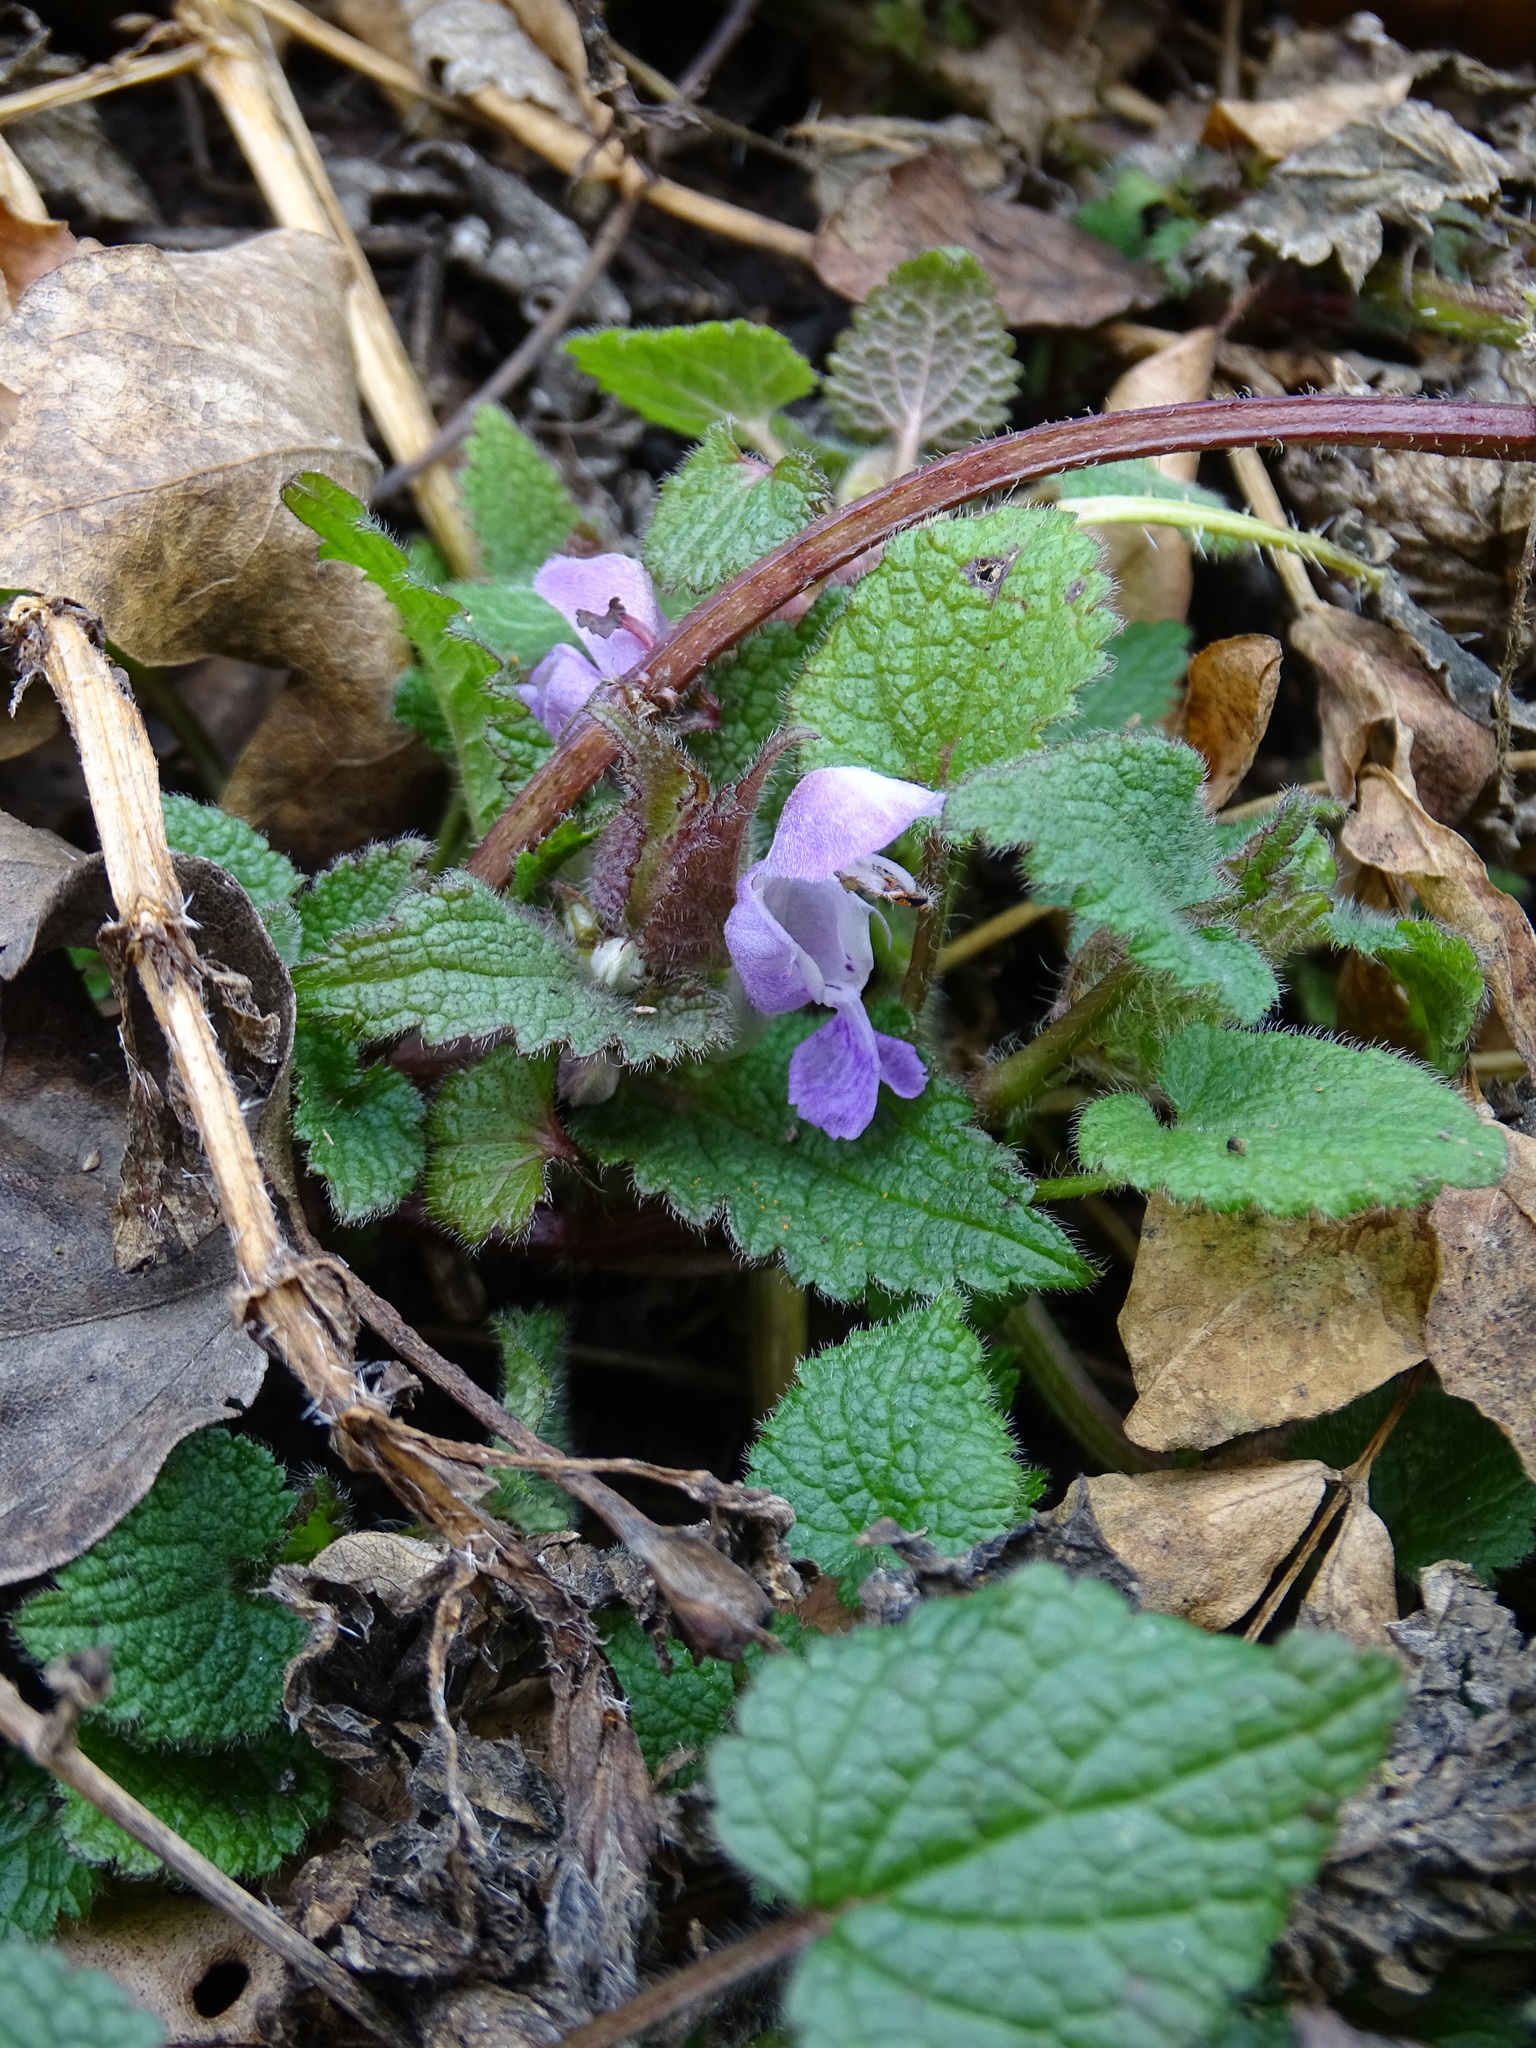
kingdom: Plantae
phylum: Tracheophyta
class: Magnoliopsida
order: Lamiales
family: Lamiaceae
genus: Lamium
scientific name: Lamium maculatum
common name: Spotted dead-nettle
